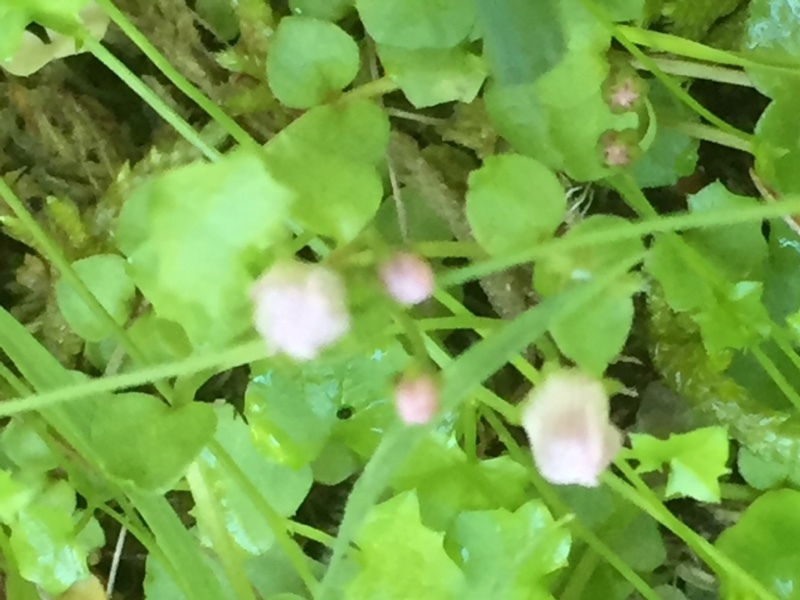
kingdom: Plantae
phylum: Tracheophyta
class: Magnoliopsida
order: Asterales
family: Campanulaceae
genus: Hesperocodon
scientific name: Hesperocodon hederaceus
